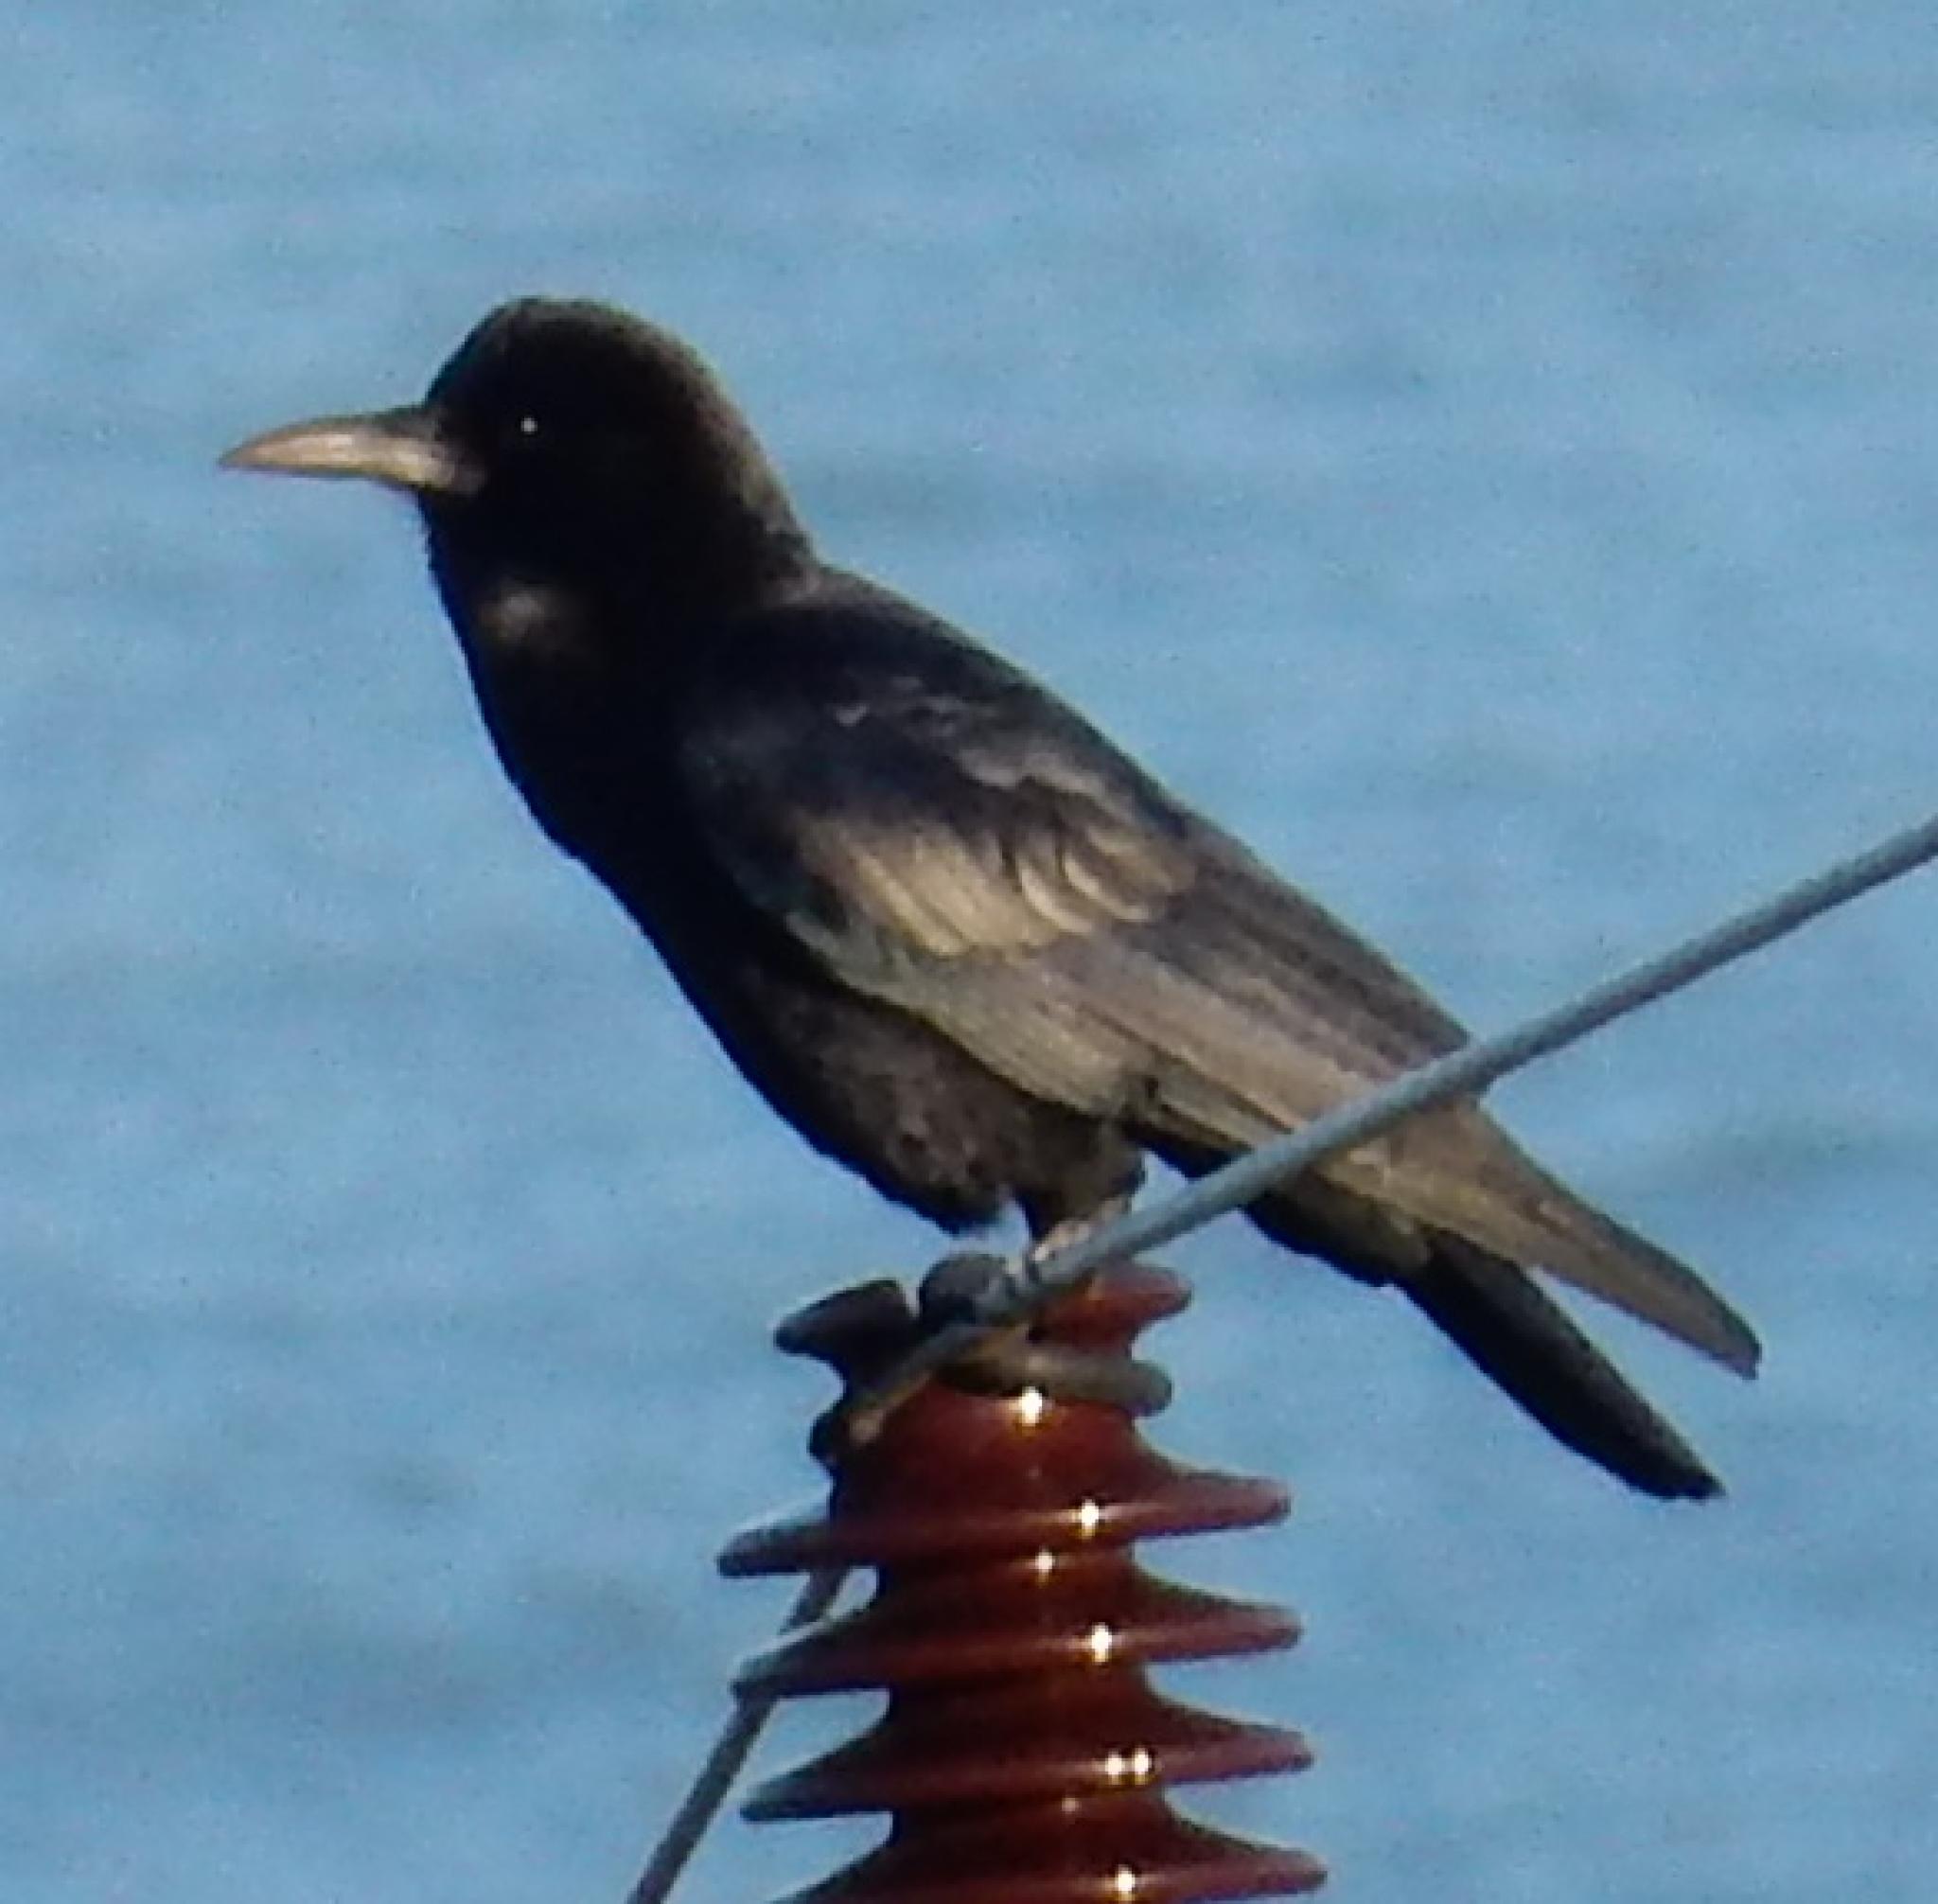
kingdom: Animalia
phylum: Chordata
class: Aves
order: Passeriformes
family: Corvidae
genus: Corvus
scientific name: Corvus capensis
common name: Cape crow
